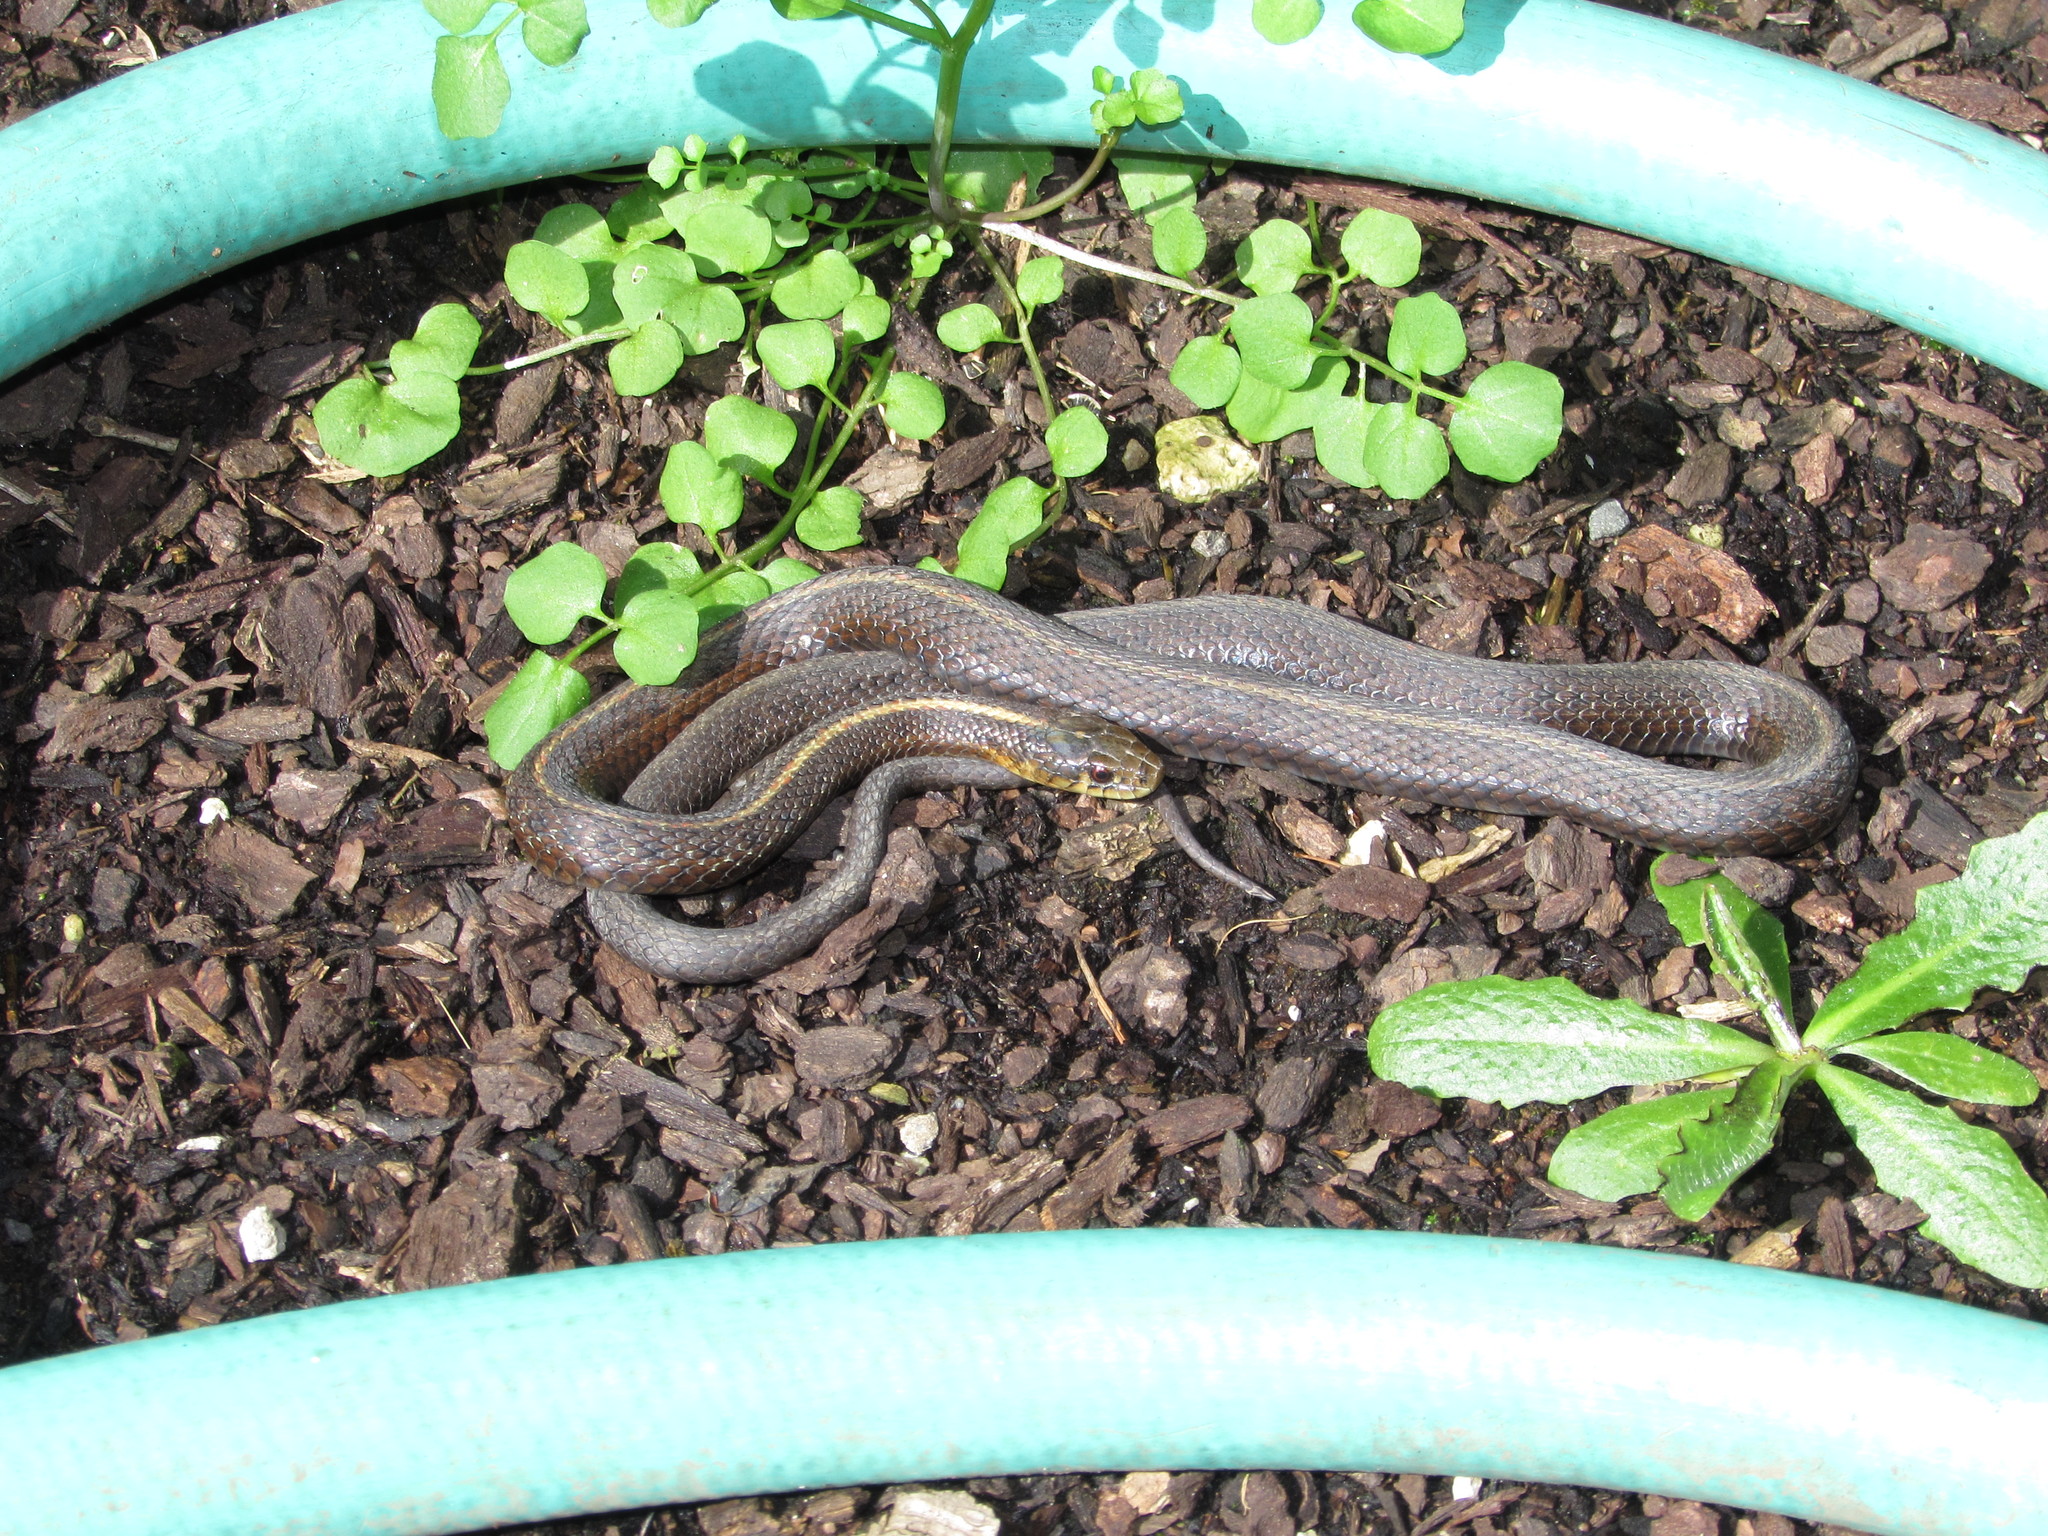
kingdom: Animalia
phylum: Chordata
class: Squamata
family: Colubridae
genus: Thamnophis
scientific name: Thamnophis ordinoides
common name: Northwestern garter snake
